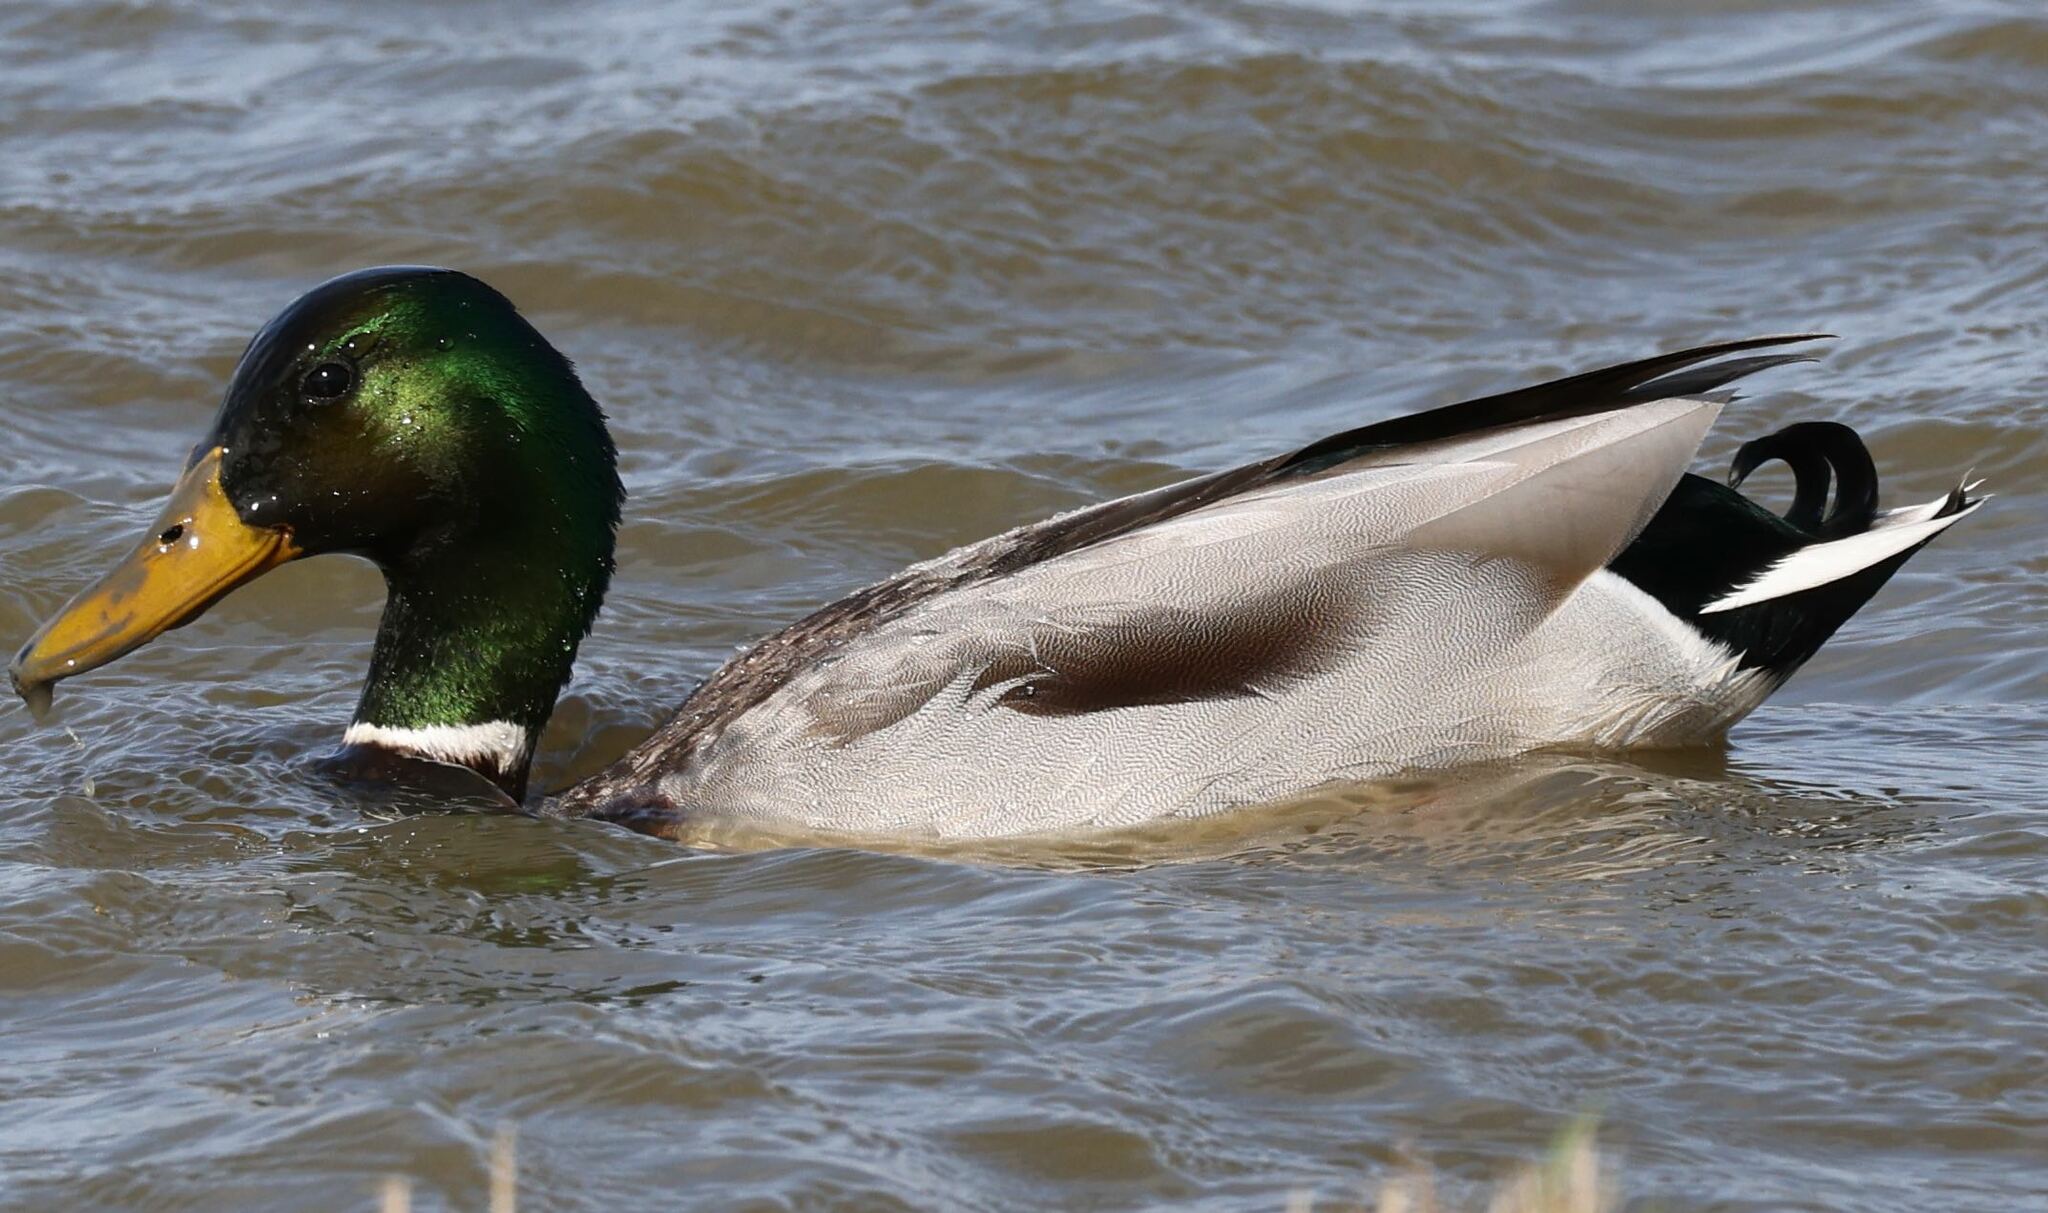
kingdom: Animalia
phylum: Chordata
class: Aves
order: Anseriformes
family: Anatidae
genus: Anas
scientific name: Anas platyrhynchos
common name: Mallard
